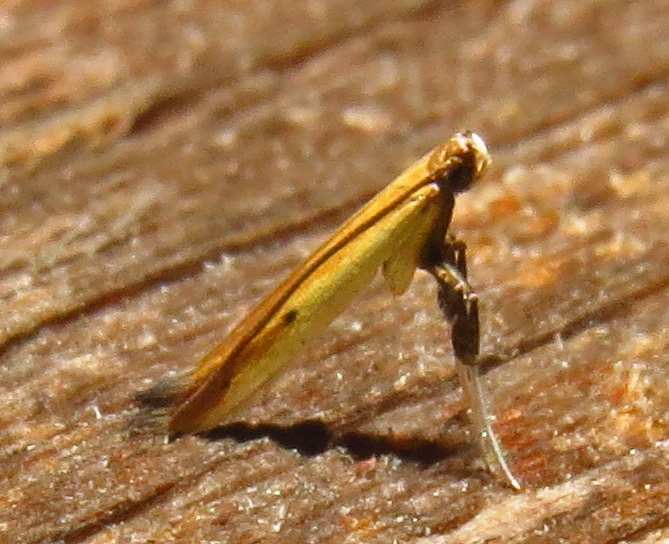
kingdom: Animalia
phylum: Arthropoda
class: Insecta
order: Lepidoptera
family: Gracillariidae
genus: Caloptilia
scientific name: Caloptilia violacella
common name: Tick-trefoil caloptilia moth
